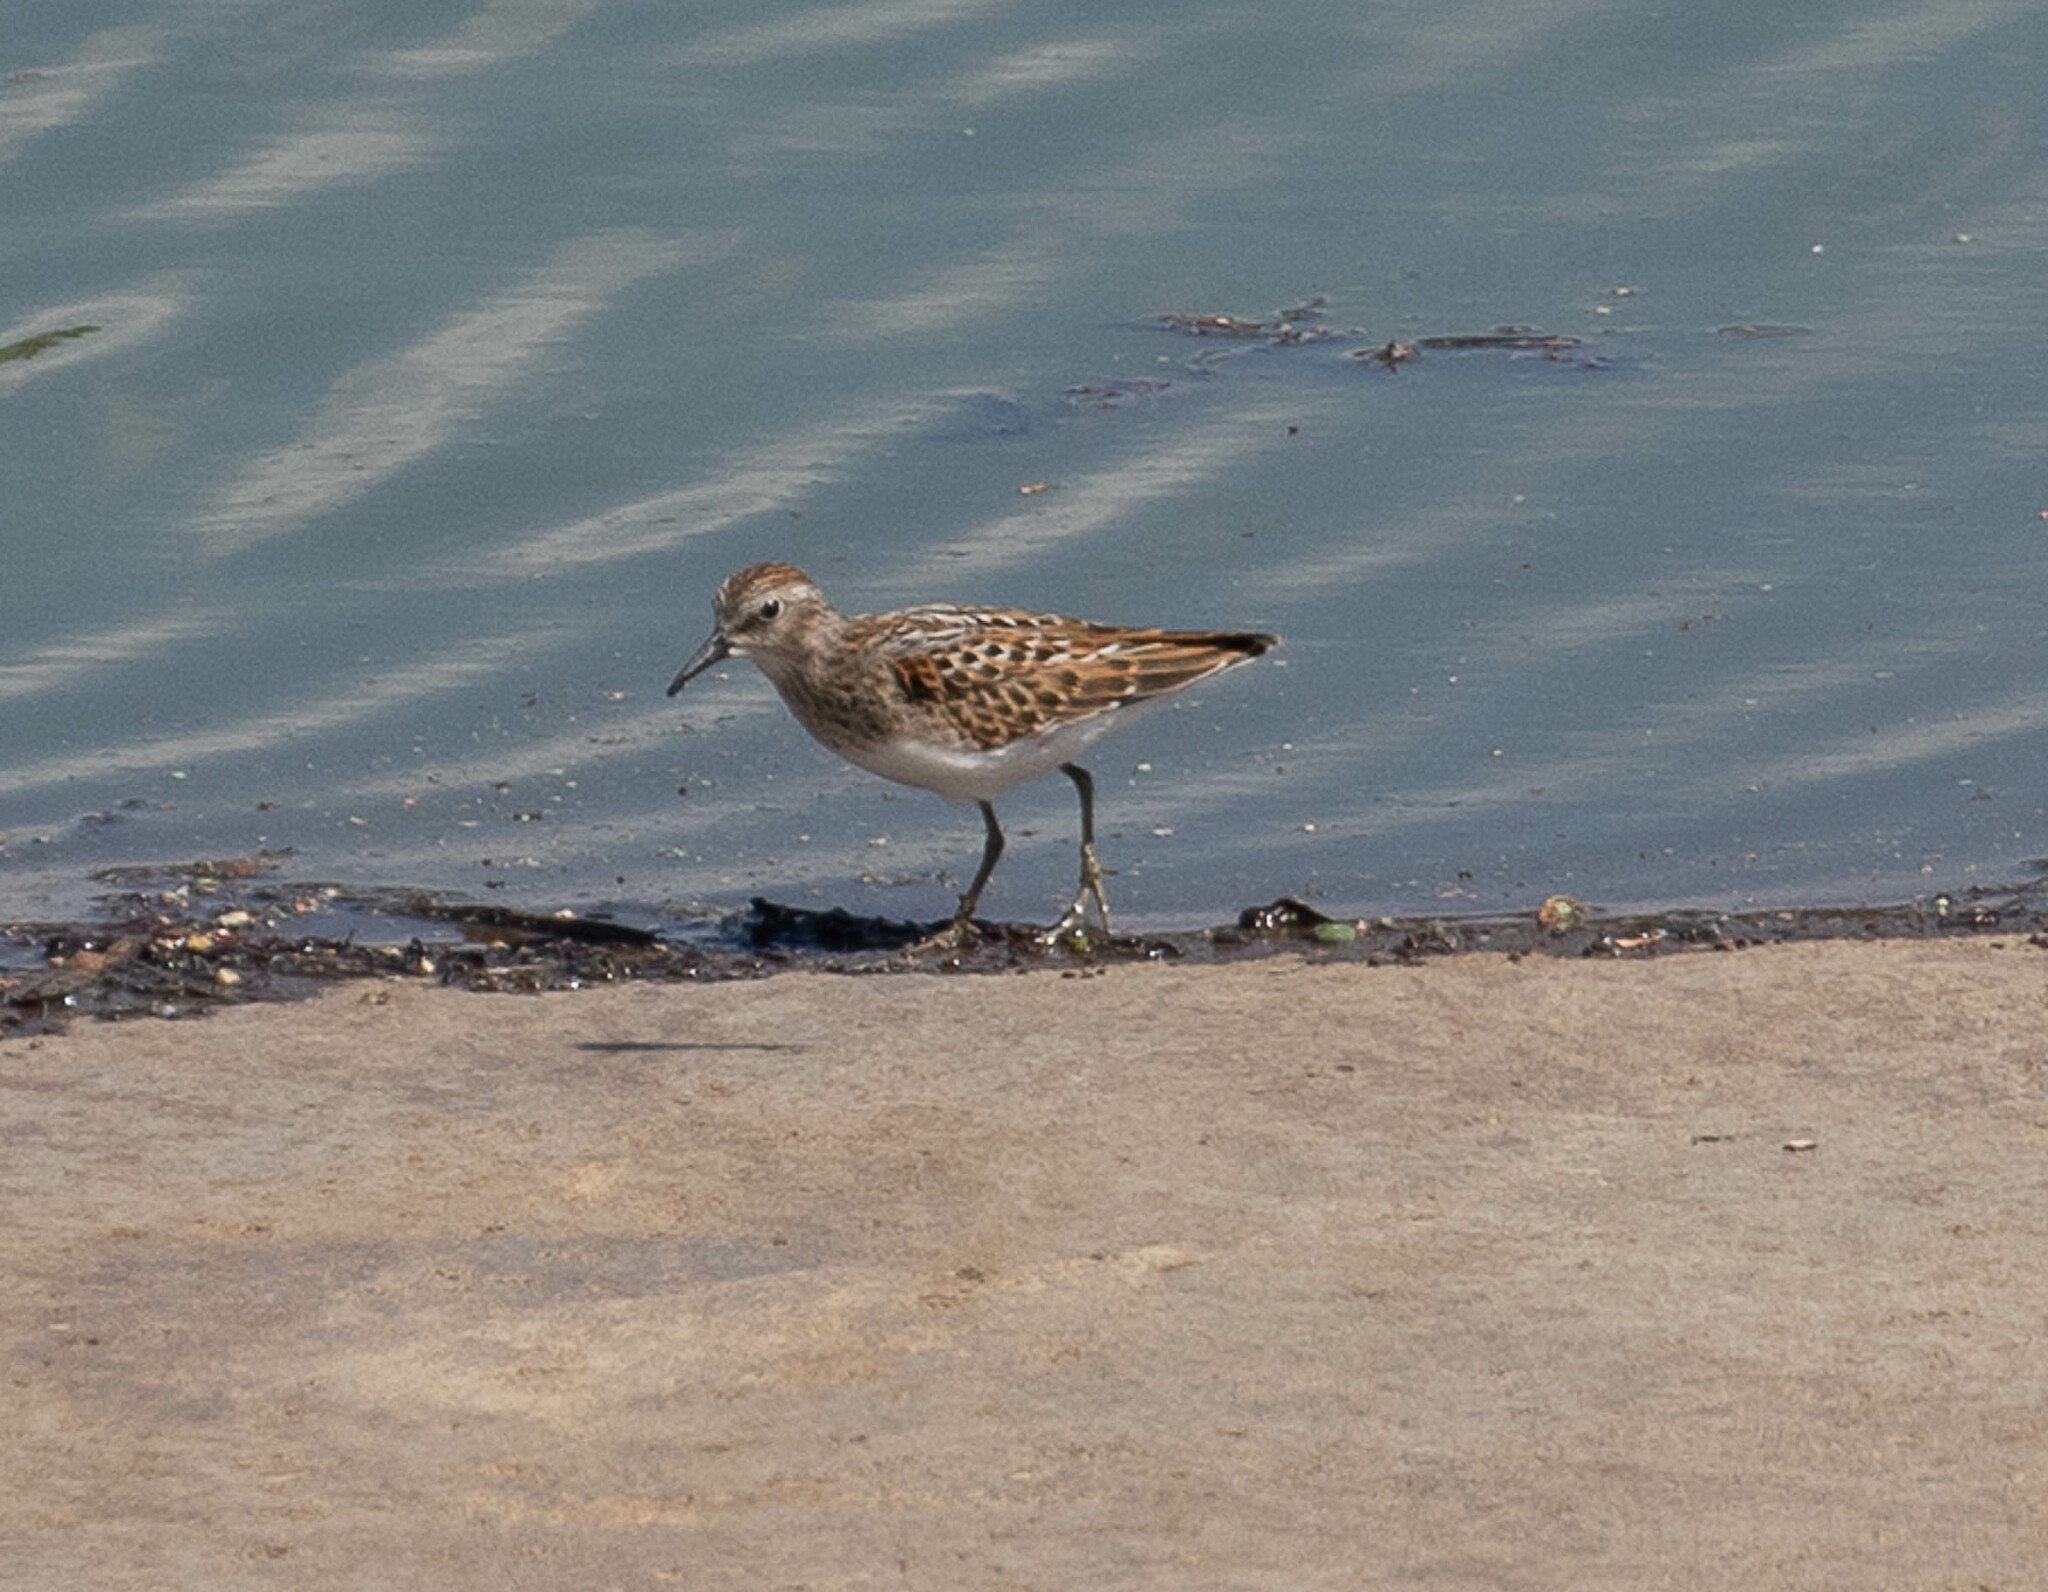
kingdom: Animalia
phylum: Chordata
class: Aves
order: Charadriiformes
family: Scolopacidae
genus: Calidris
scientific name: Calidris minutilla
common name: Least sandpiper
